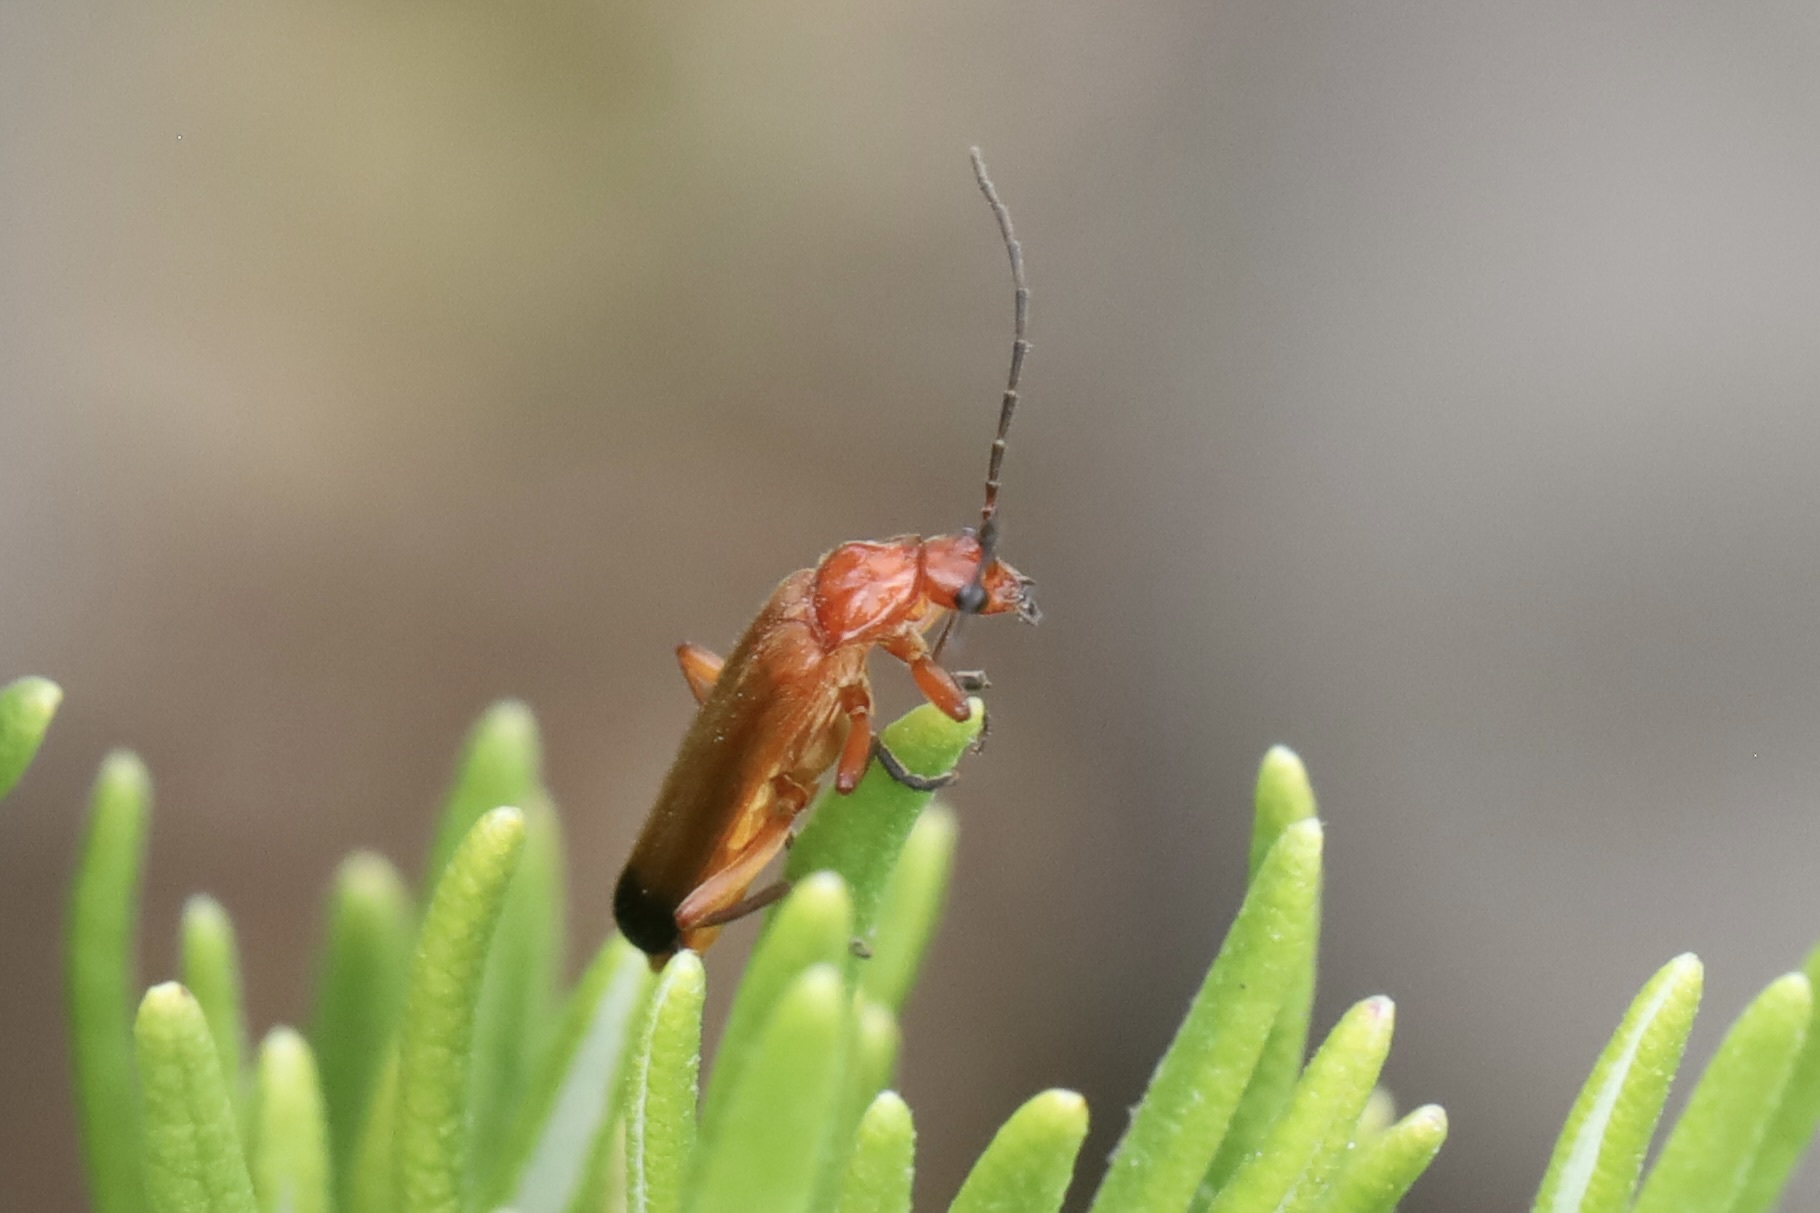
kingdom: Animalia
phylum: Arthropoda
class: Insecta
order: Coleoptera
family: Cantharidae
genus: Rhagonycha
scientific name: Rhagonycha fulva
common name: Common red soldier beetle
